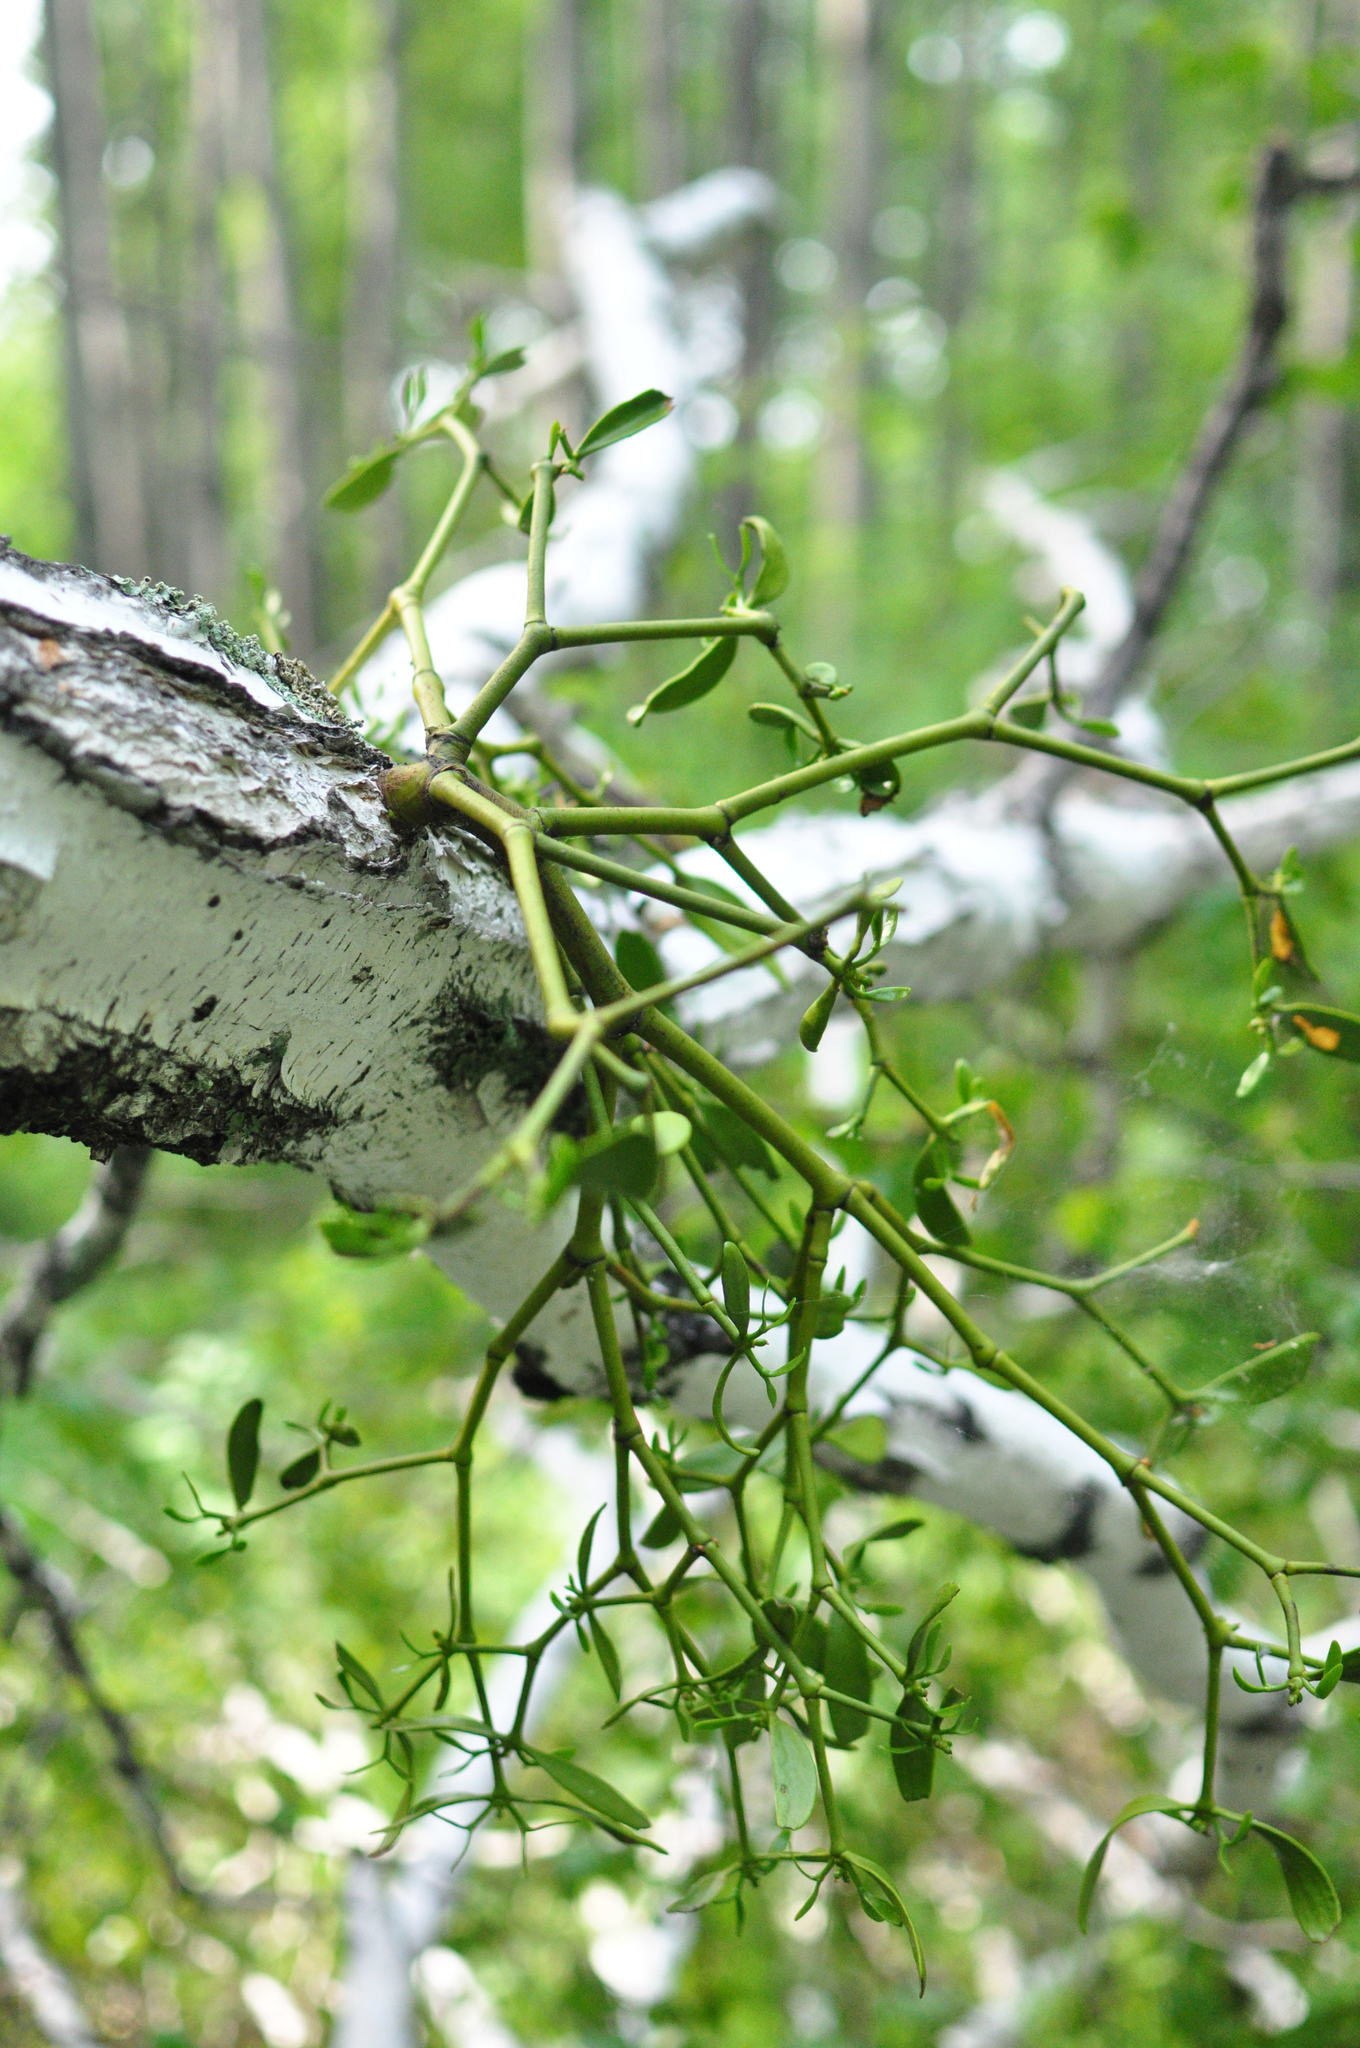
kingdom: Plantae
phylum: Tracheophyta
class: Magnoliopsida
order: Santalales
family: Viscaceae
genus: Viscum
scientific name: Viscum coloratum
